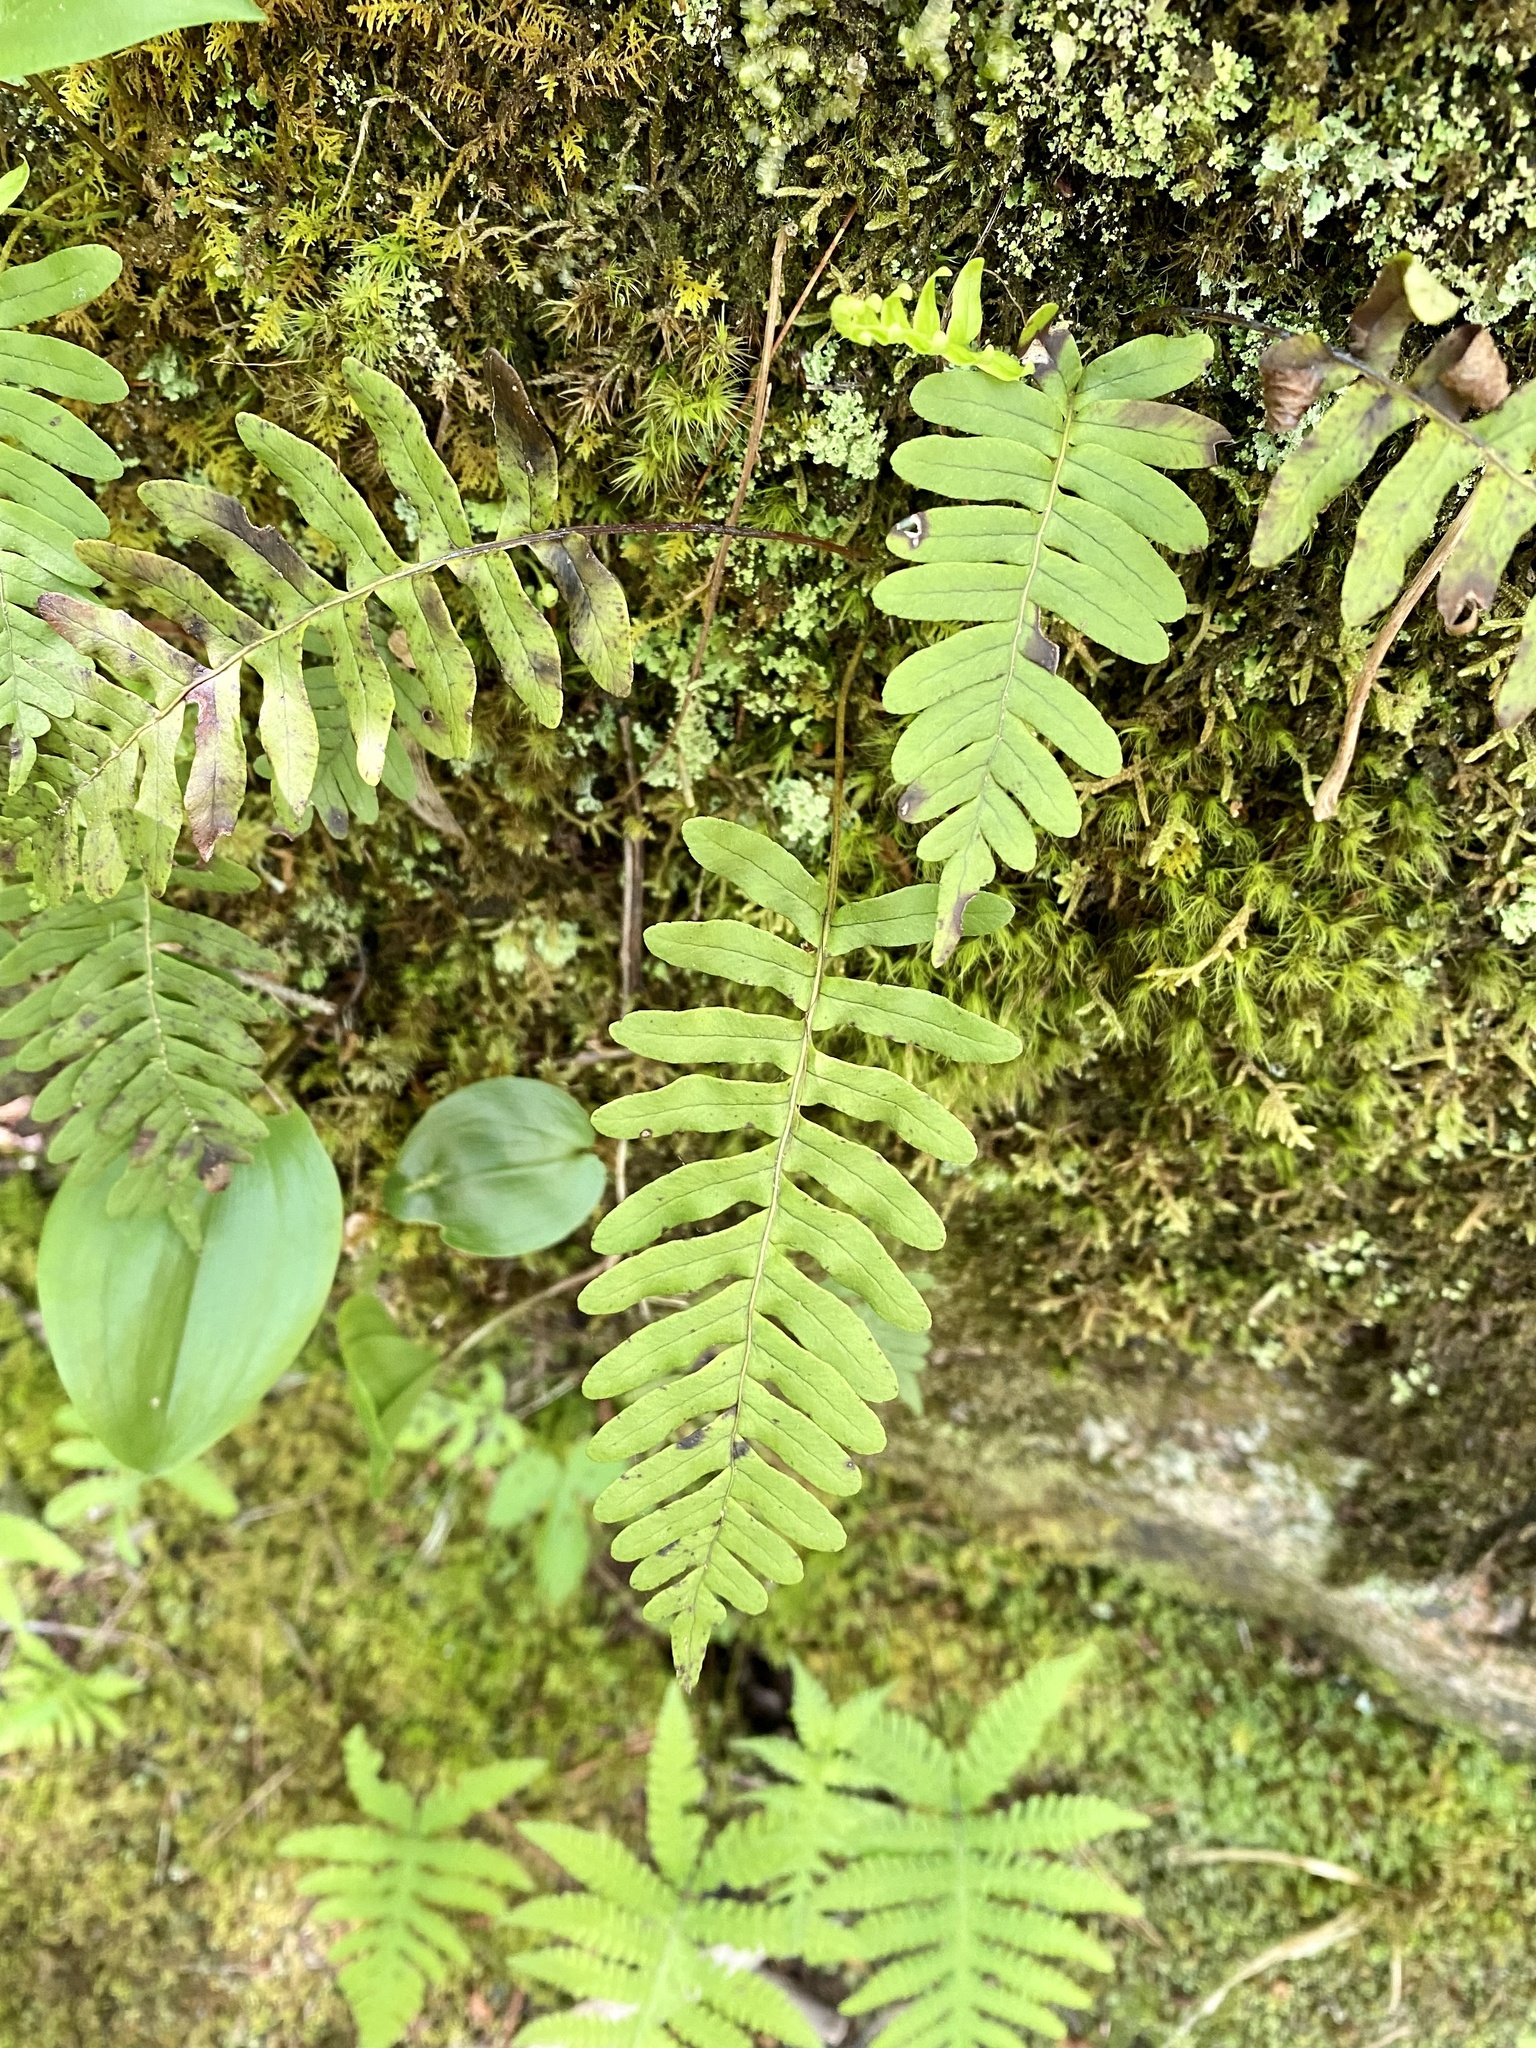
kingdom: Plantae
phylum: Tracheophyta
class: Polypodiopsida
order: Polypodiales
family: Polypodiaceae
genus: Polypodium
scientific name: Polypodium virginianum
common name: American wall fern
